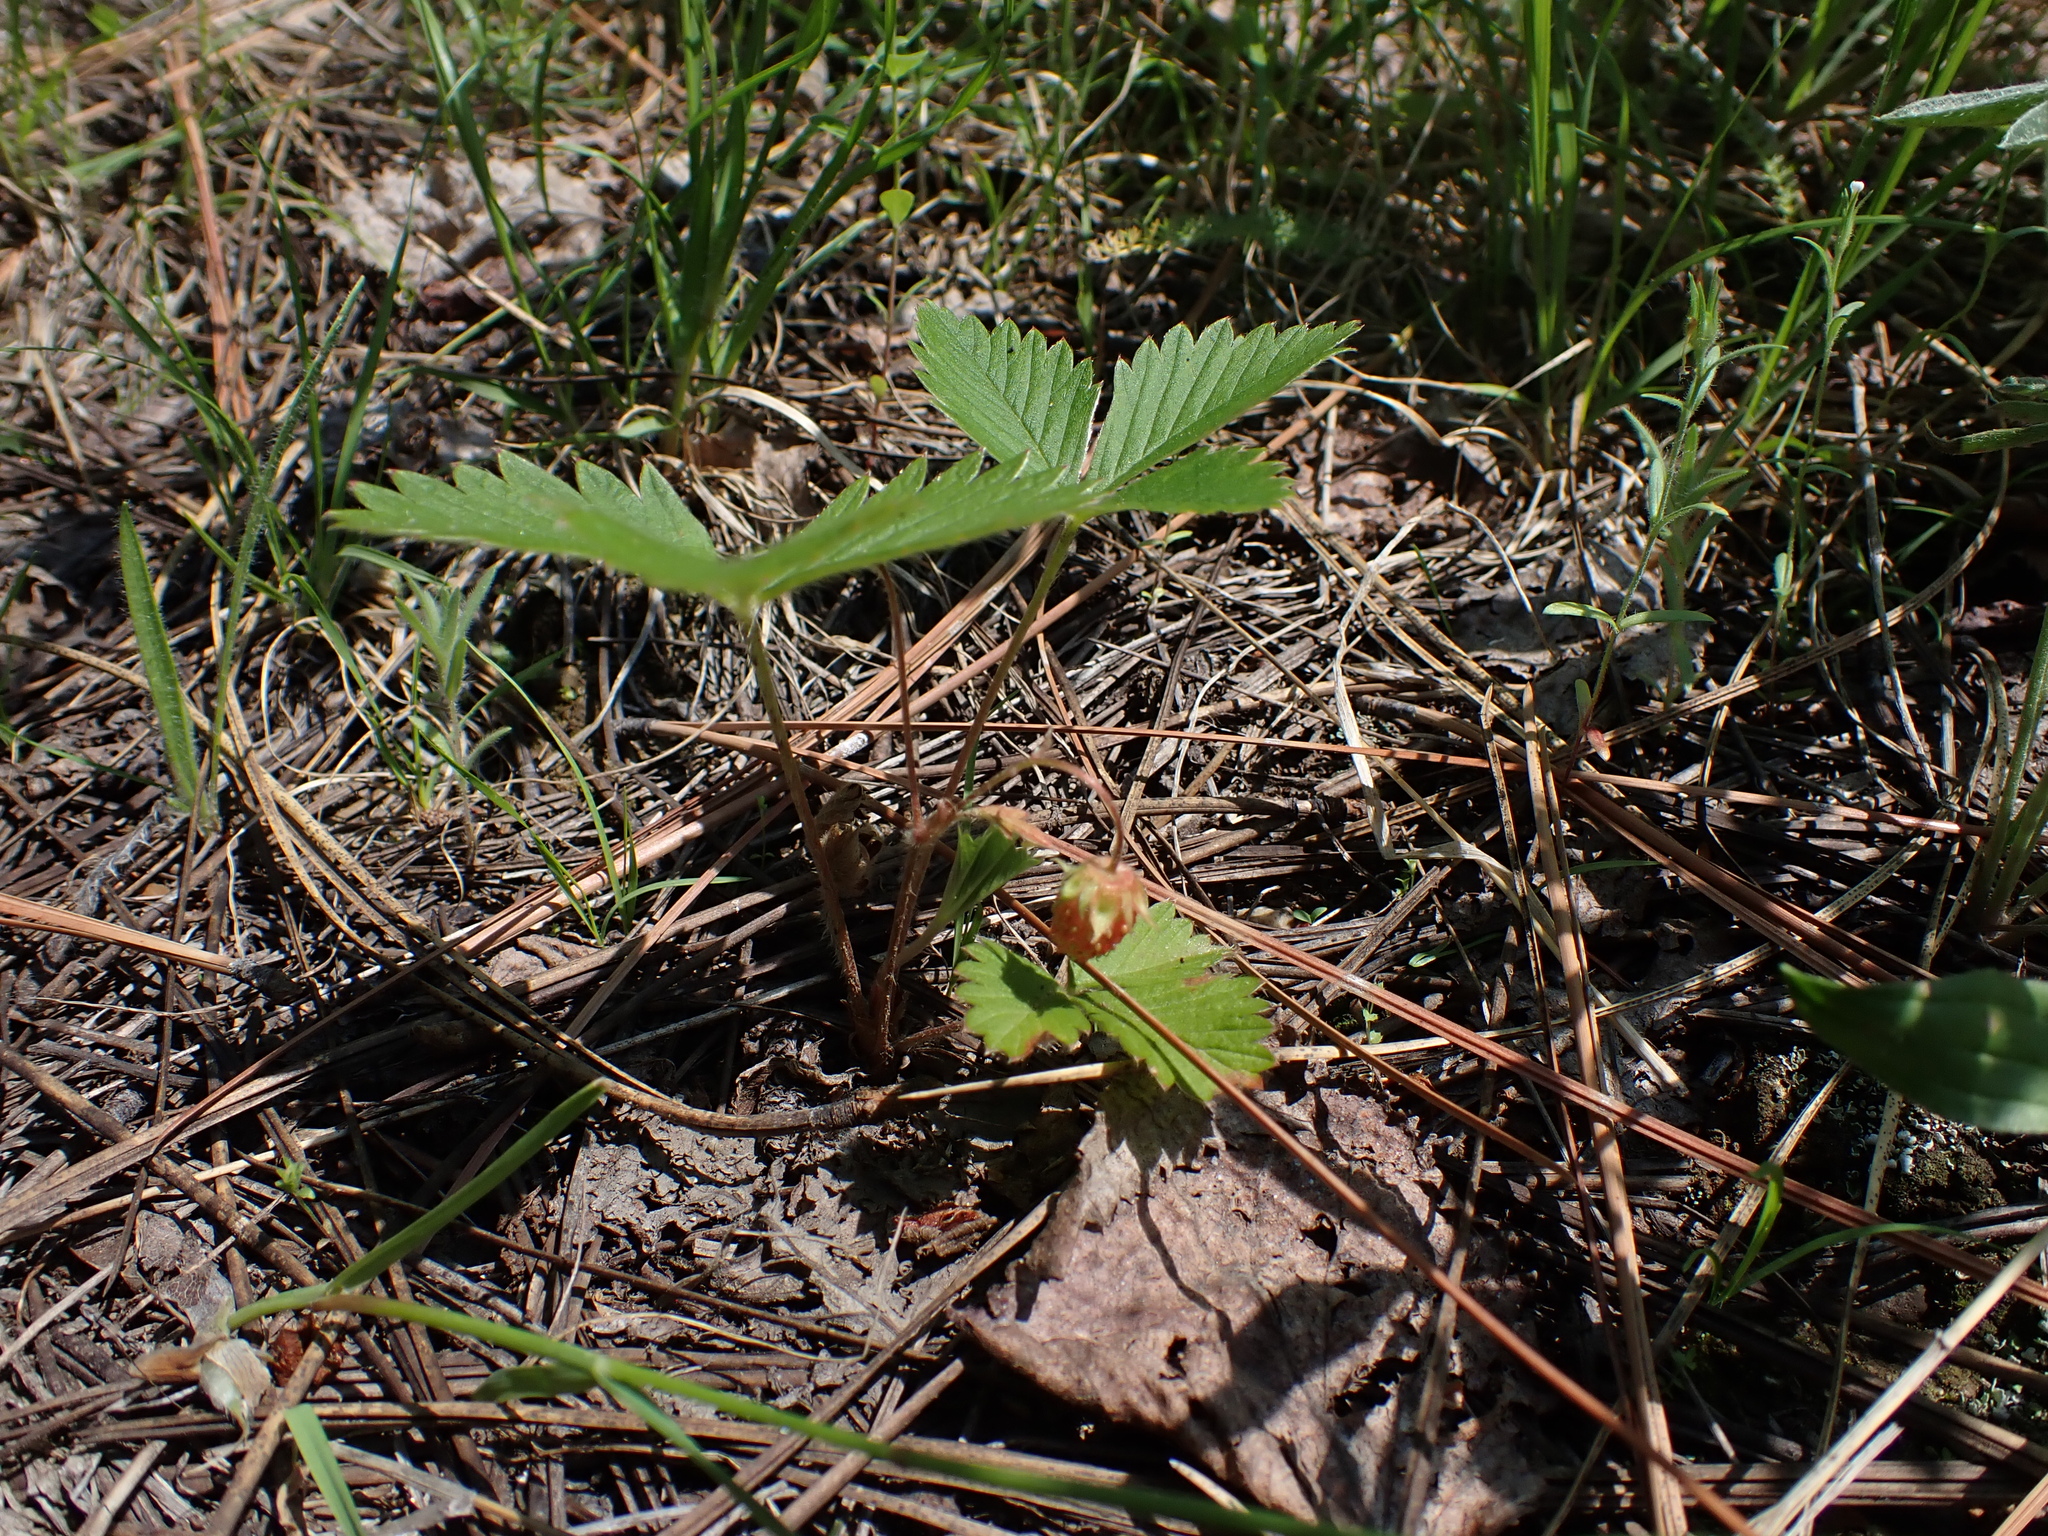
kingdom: Plantae
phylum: Tracheophyta
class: Magnoliopsida
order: Rosales
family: Rosaceae
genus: Fragaria
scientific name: Fragaria vesca
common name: Wild strawberry
